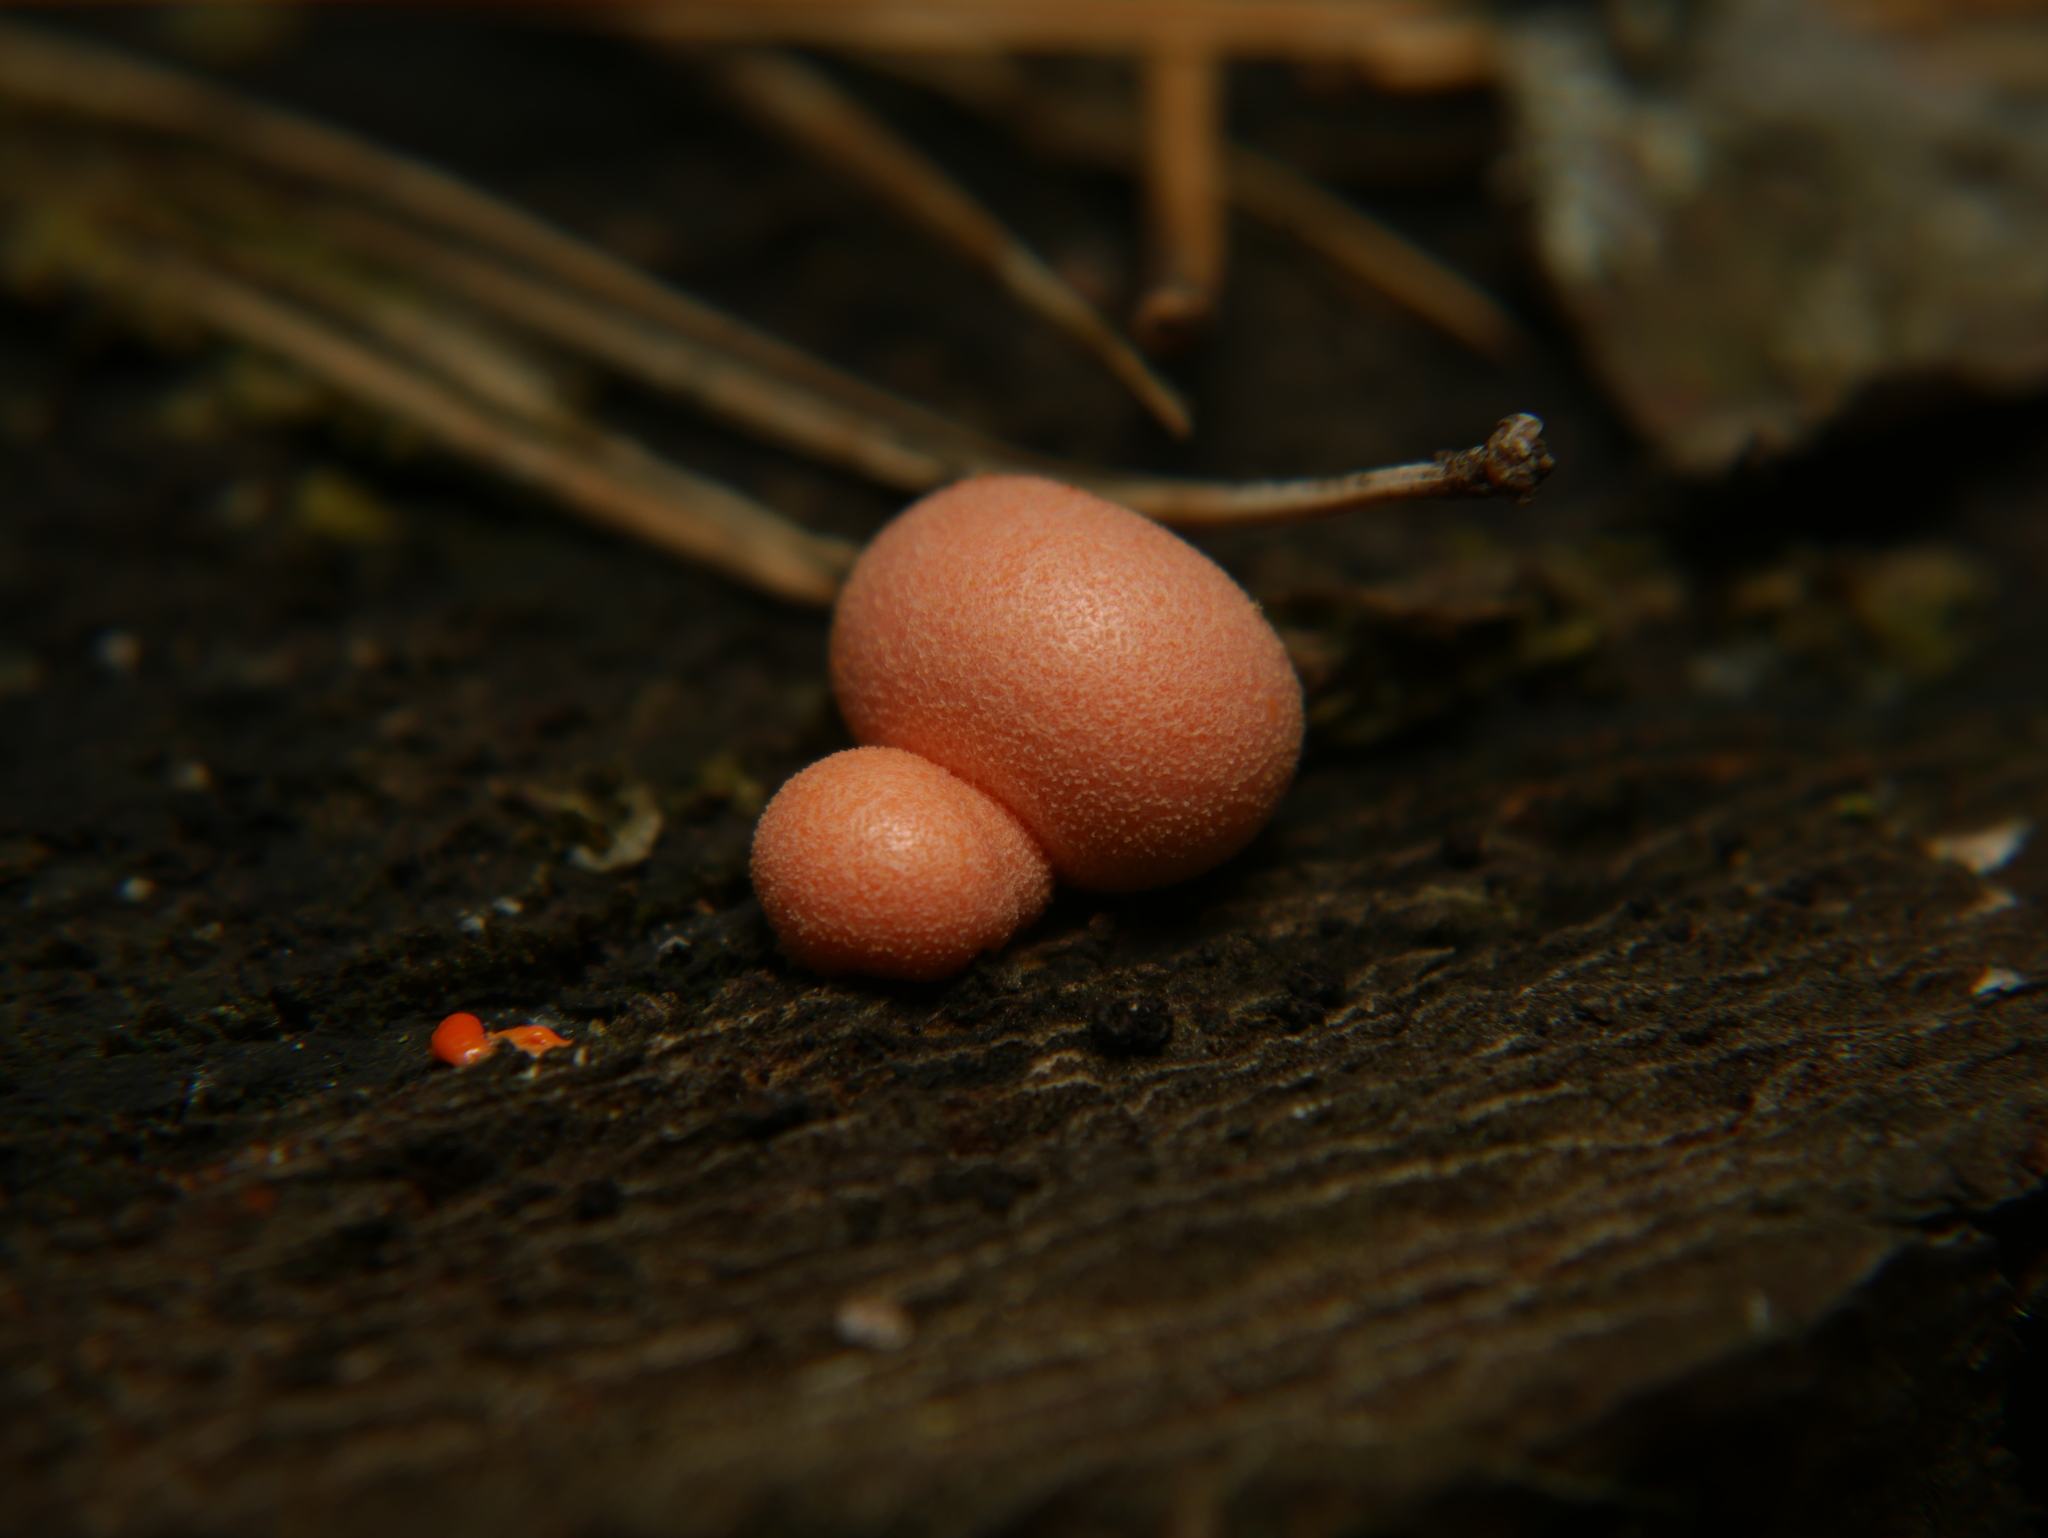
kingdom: Protozoa
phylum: Mycetozoa
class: Myxomycetes
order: Cribrariales
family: Tubiferaceae
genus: Lycogala
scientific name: Lycogala epidendrum
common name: Wolf's milk
